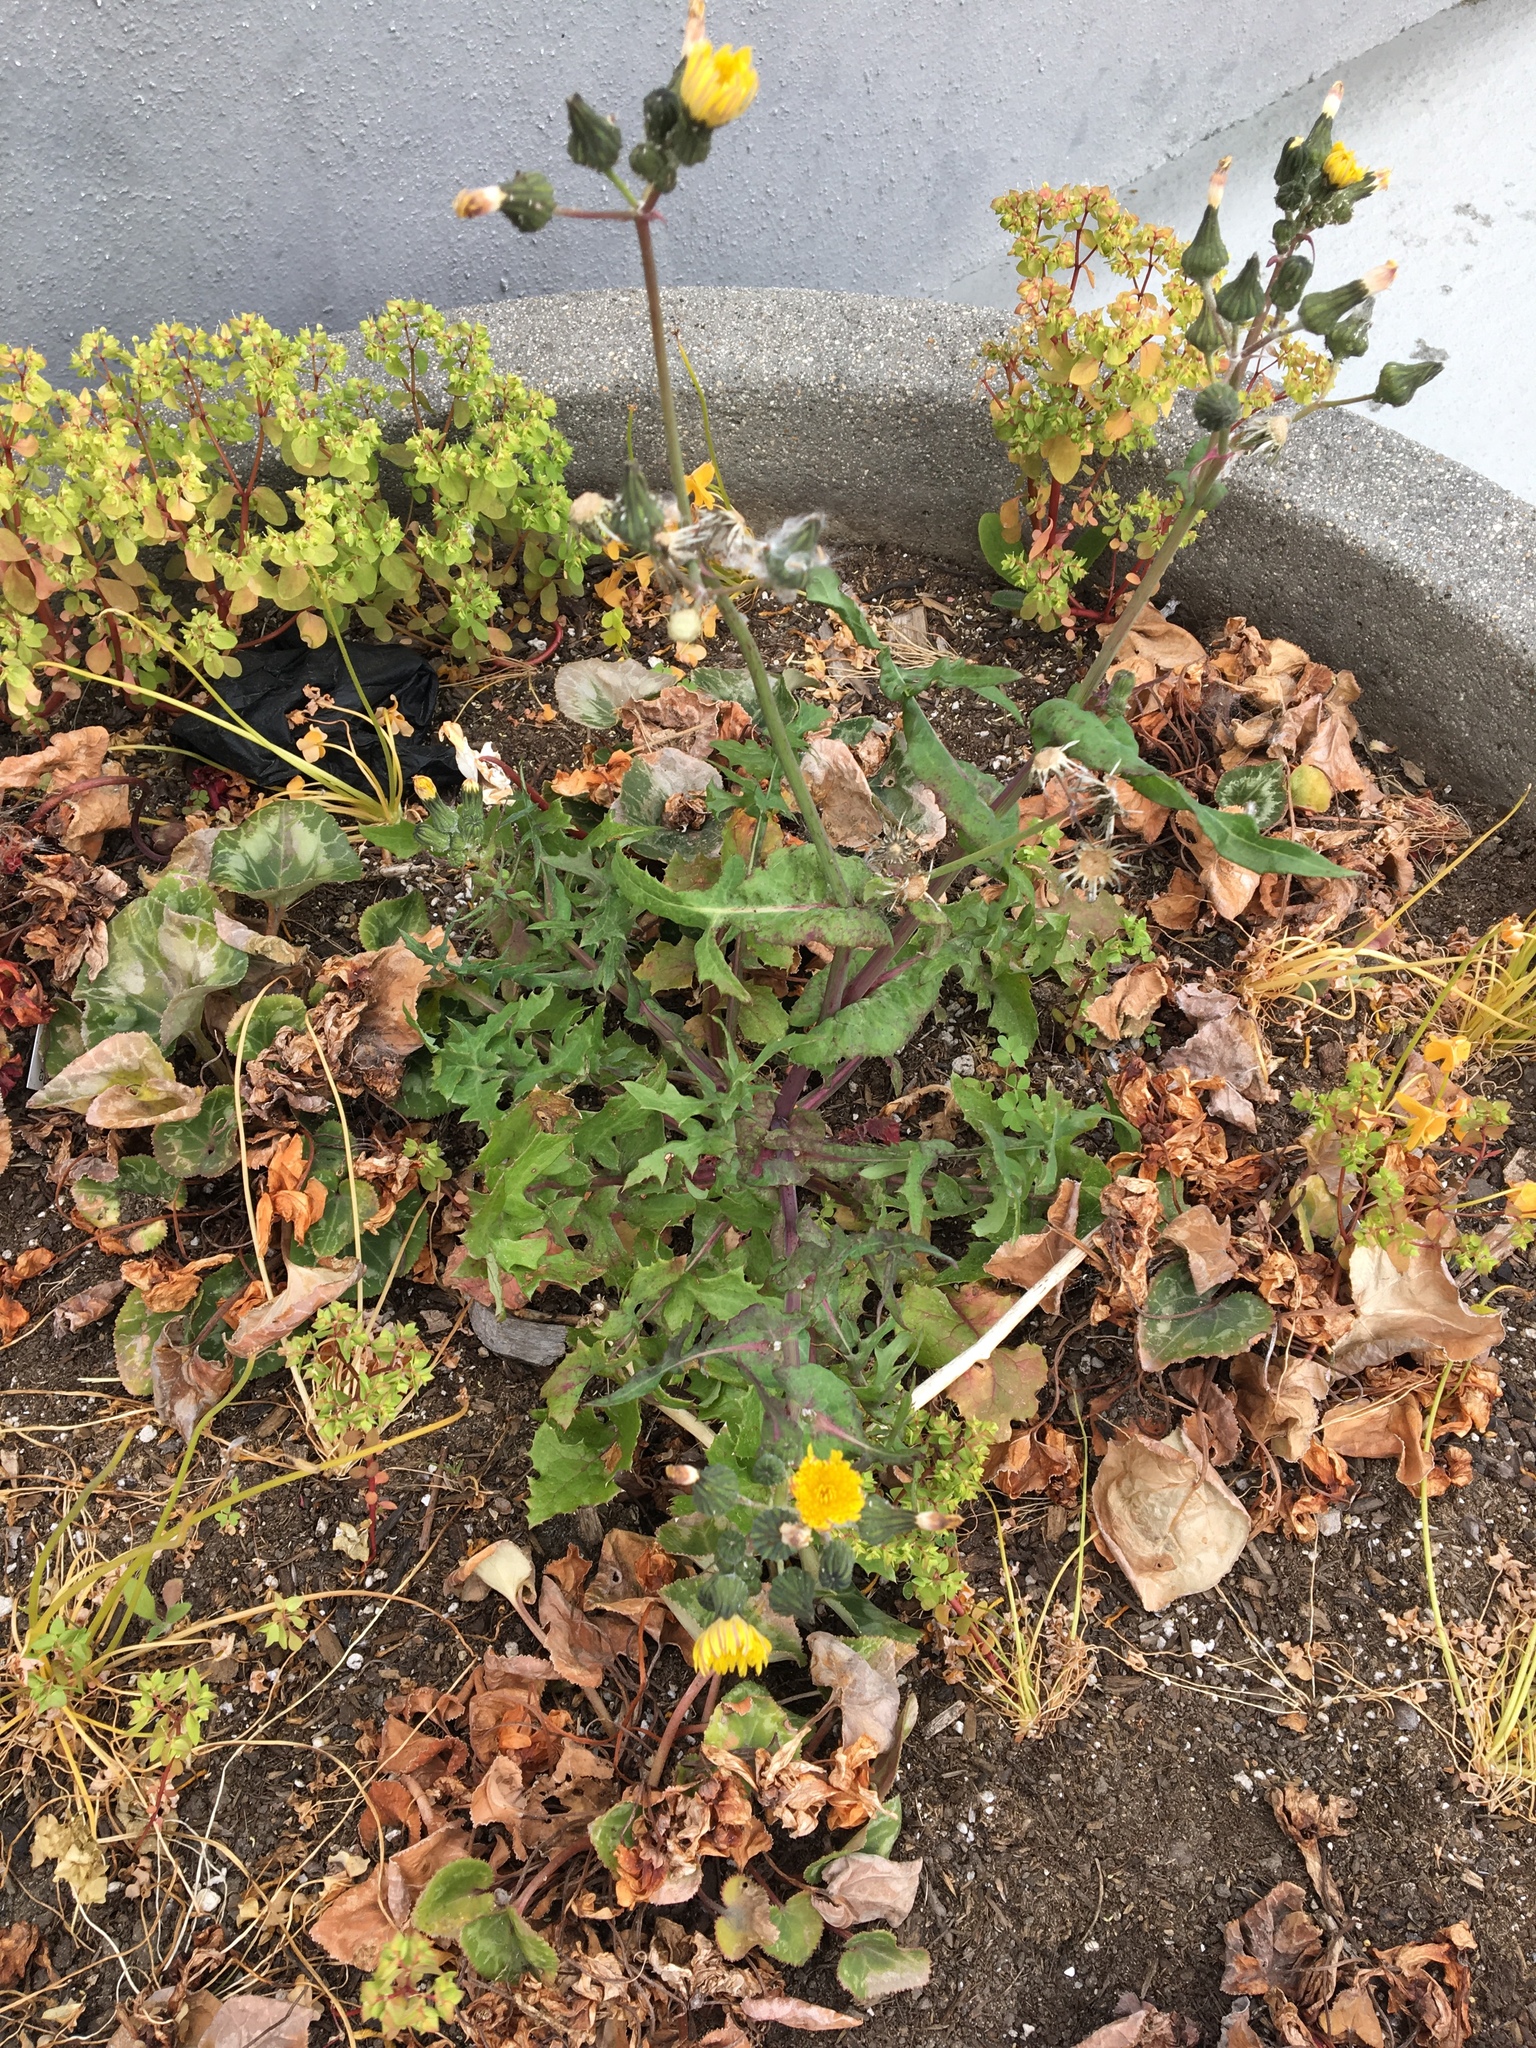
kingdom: Plantae
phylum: Tracheophyta
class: Magnoliopsida
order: Asterales
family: Asteraceae
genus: Sonchus
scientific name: Sonchus oleraceus
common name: Common sowthistle
